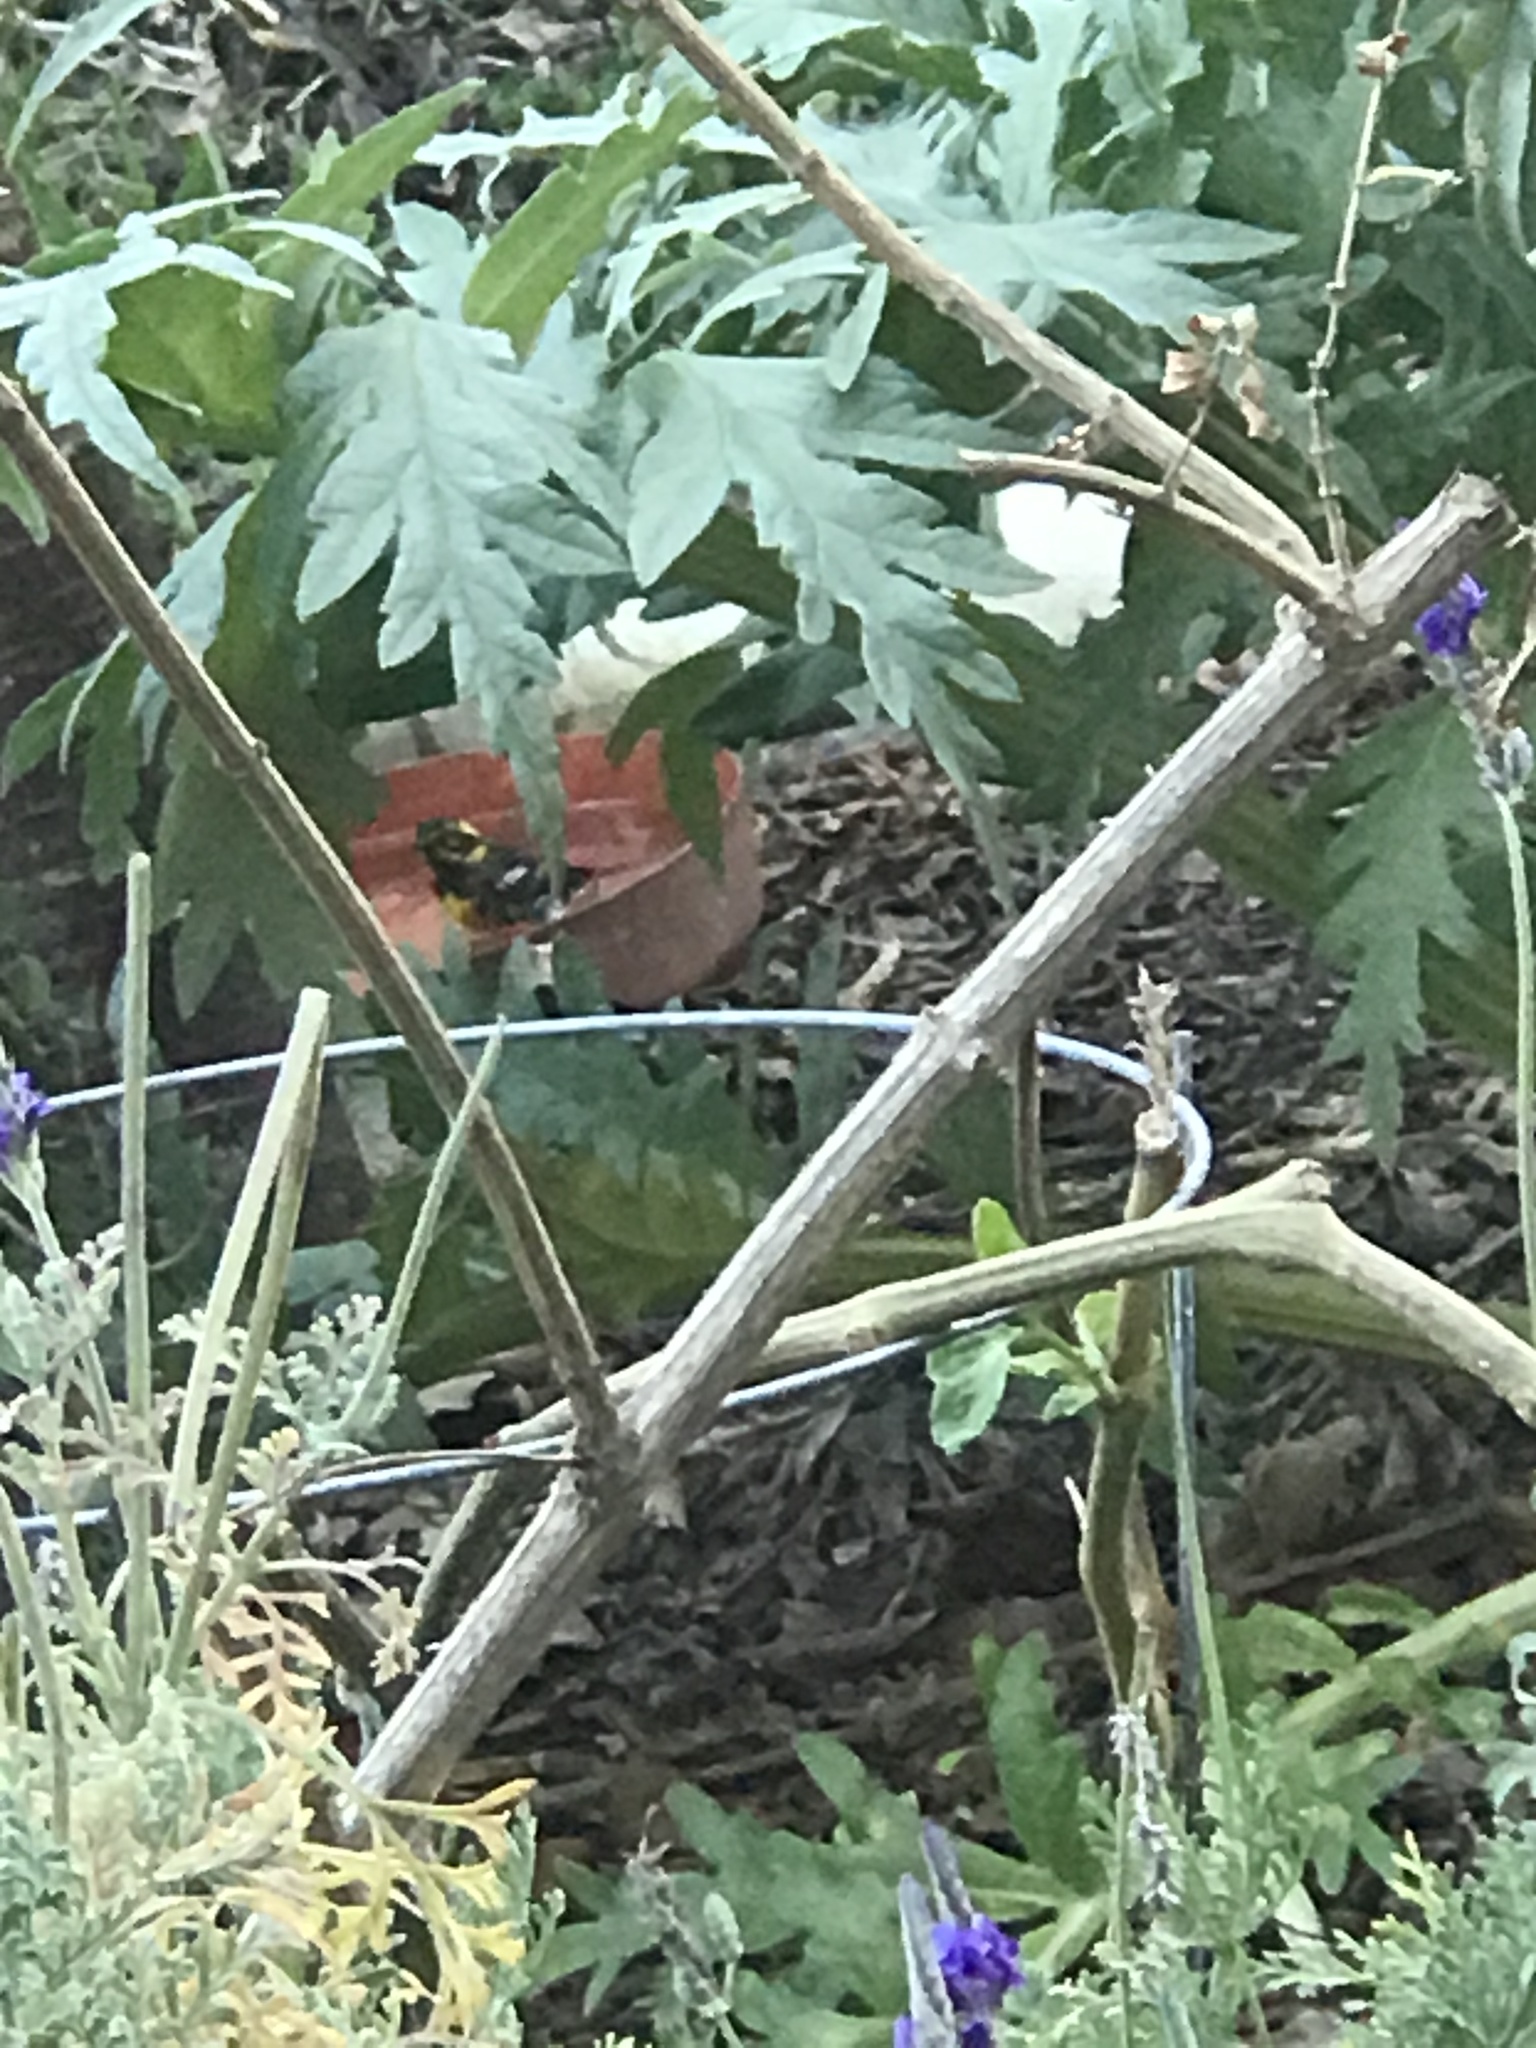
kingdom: Animalia
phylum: Chordata
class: Aves
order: Passeriformes
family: Parulidae
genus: Setophaga
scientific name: Setophaga townsendi
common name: Townsend's warbler
